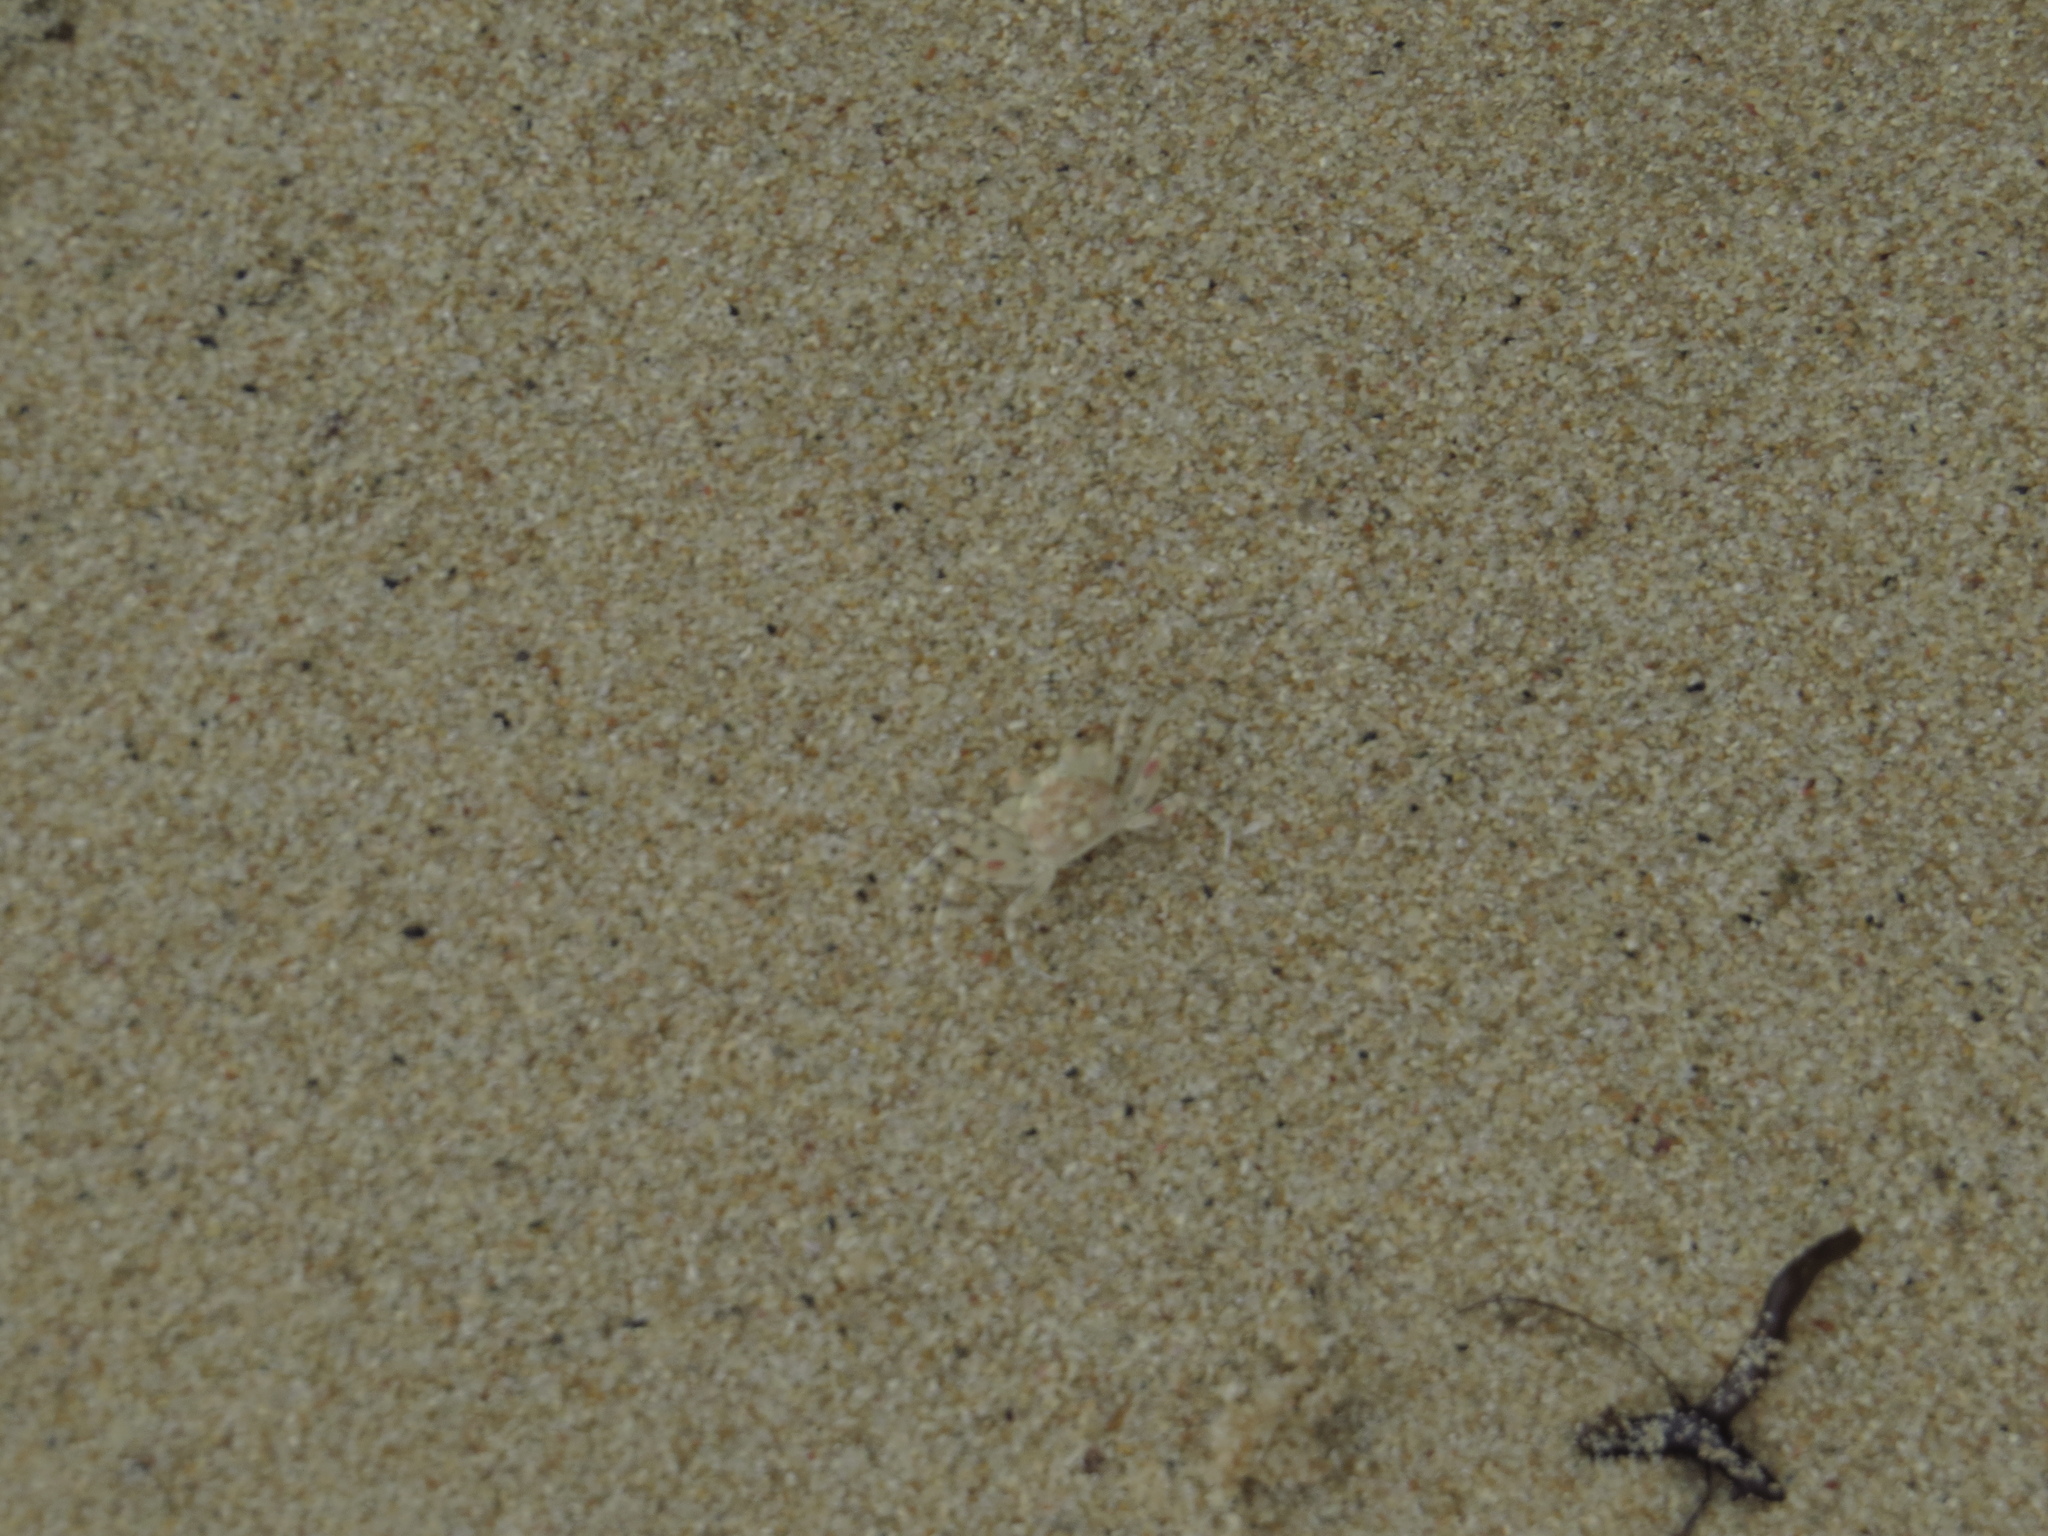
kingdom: Animalia
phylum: Arthropoda
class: Malacostraca
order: Decapoda
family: Ocypodidae
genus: Ocypode
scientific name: Ocypode
